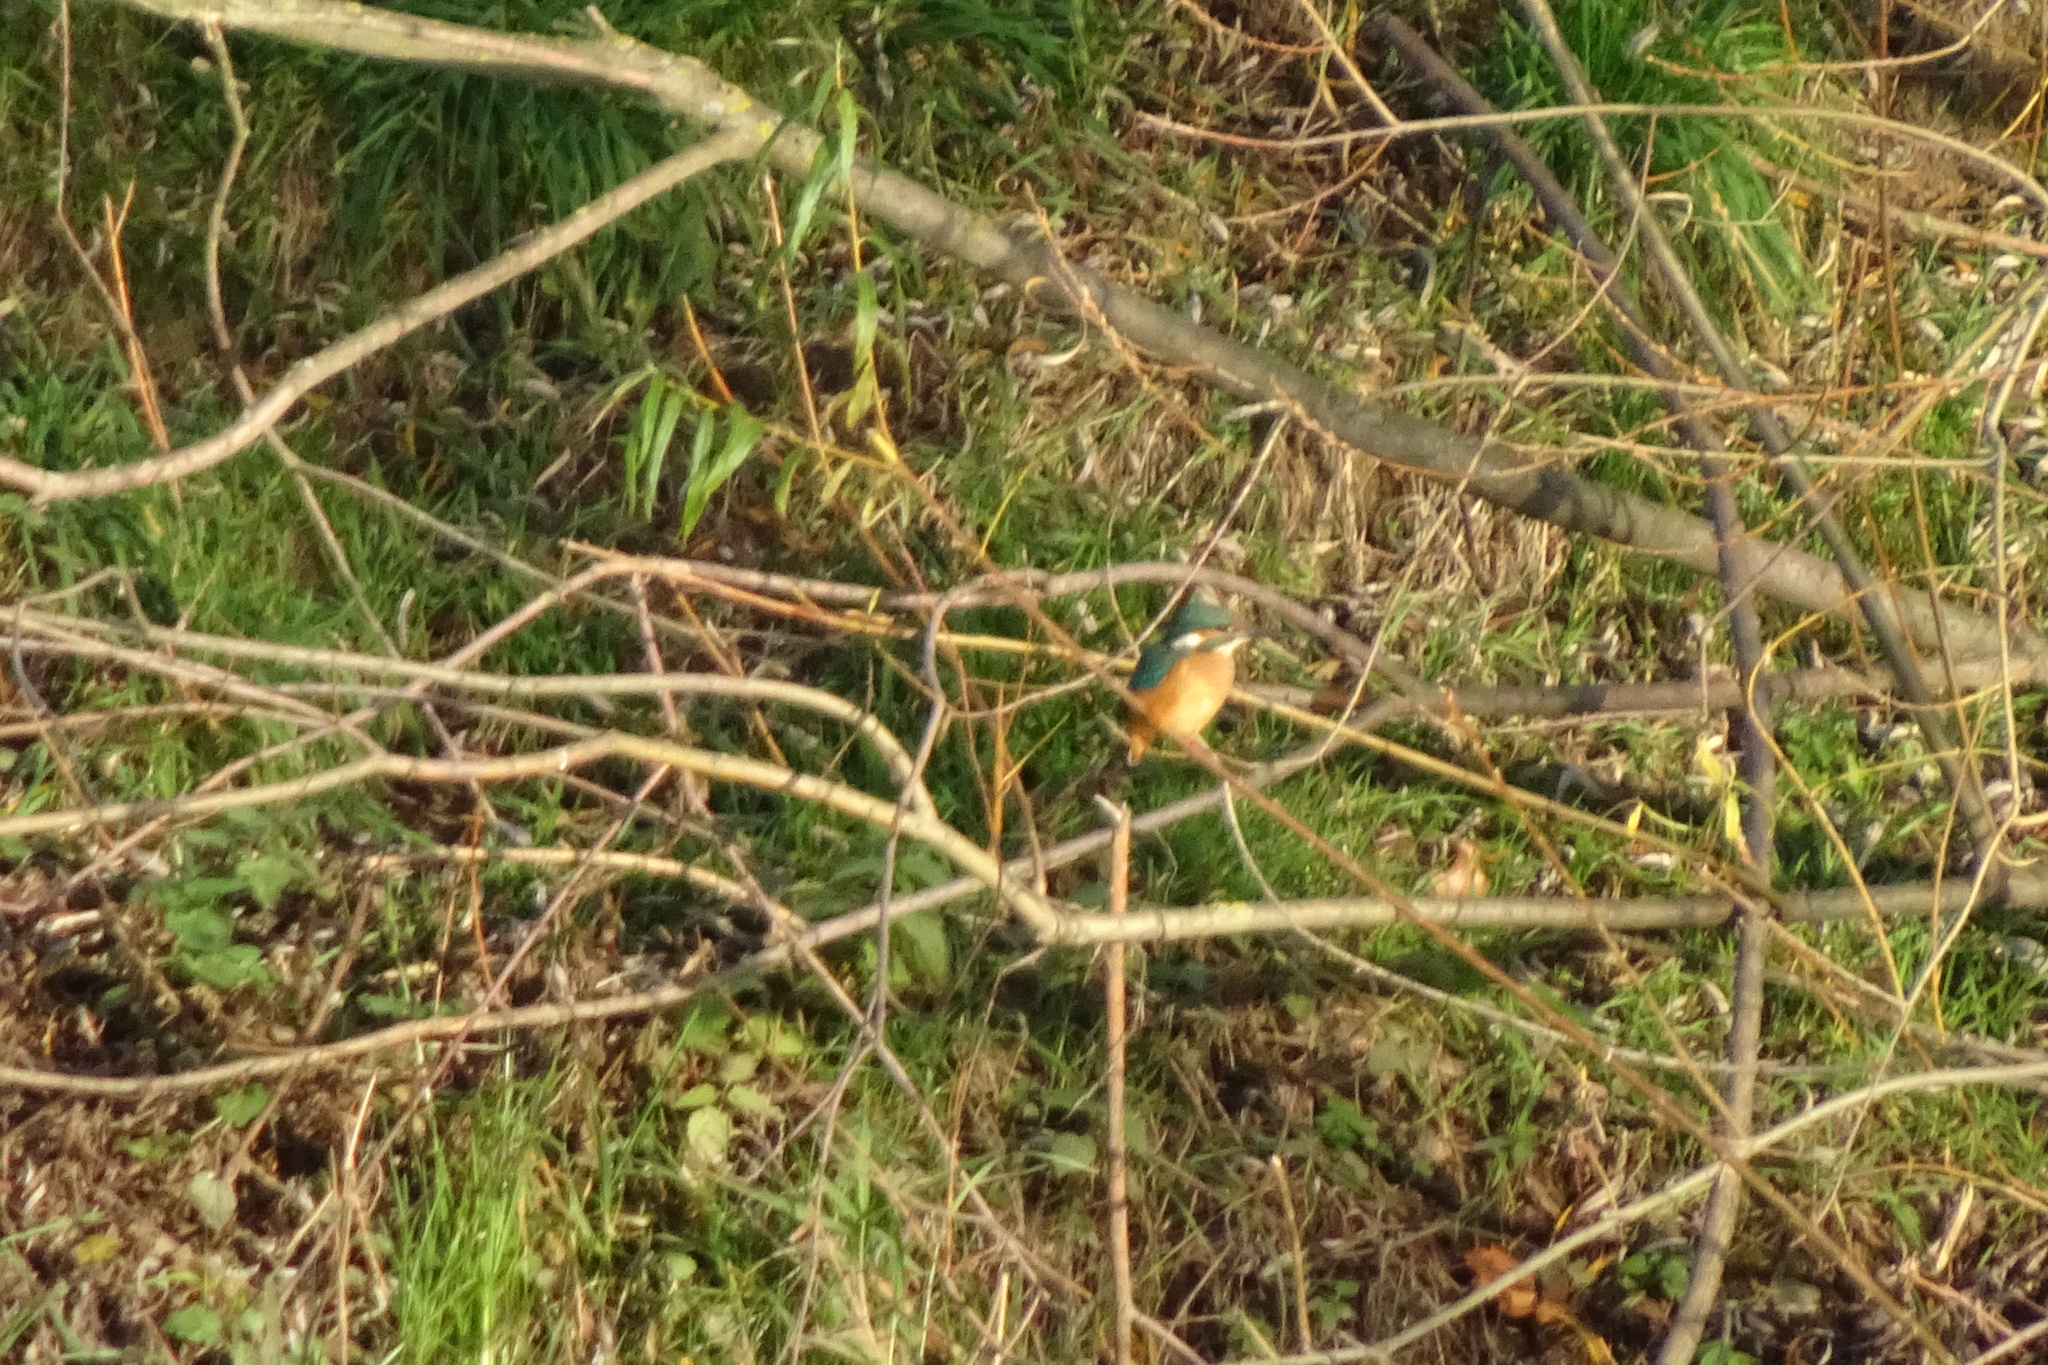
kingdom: Animalia
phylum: Chordata
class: Aves
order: Coraciiformes
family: Alcedinidae
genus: Alcedo
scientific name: Alcedo atthis
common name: Common kingfisher
